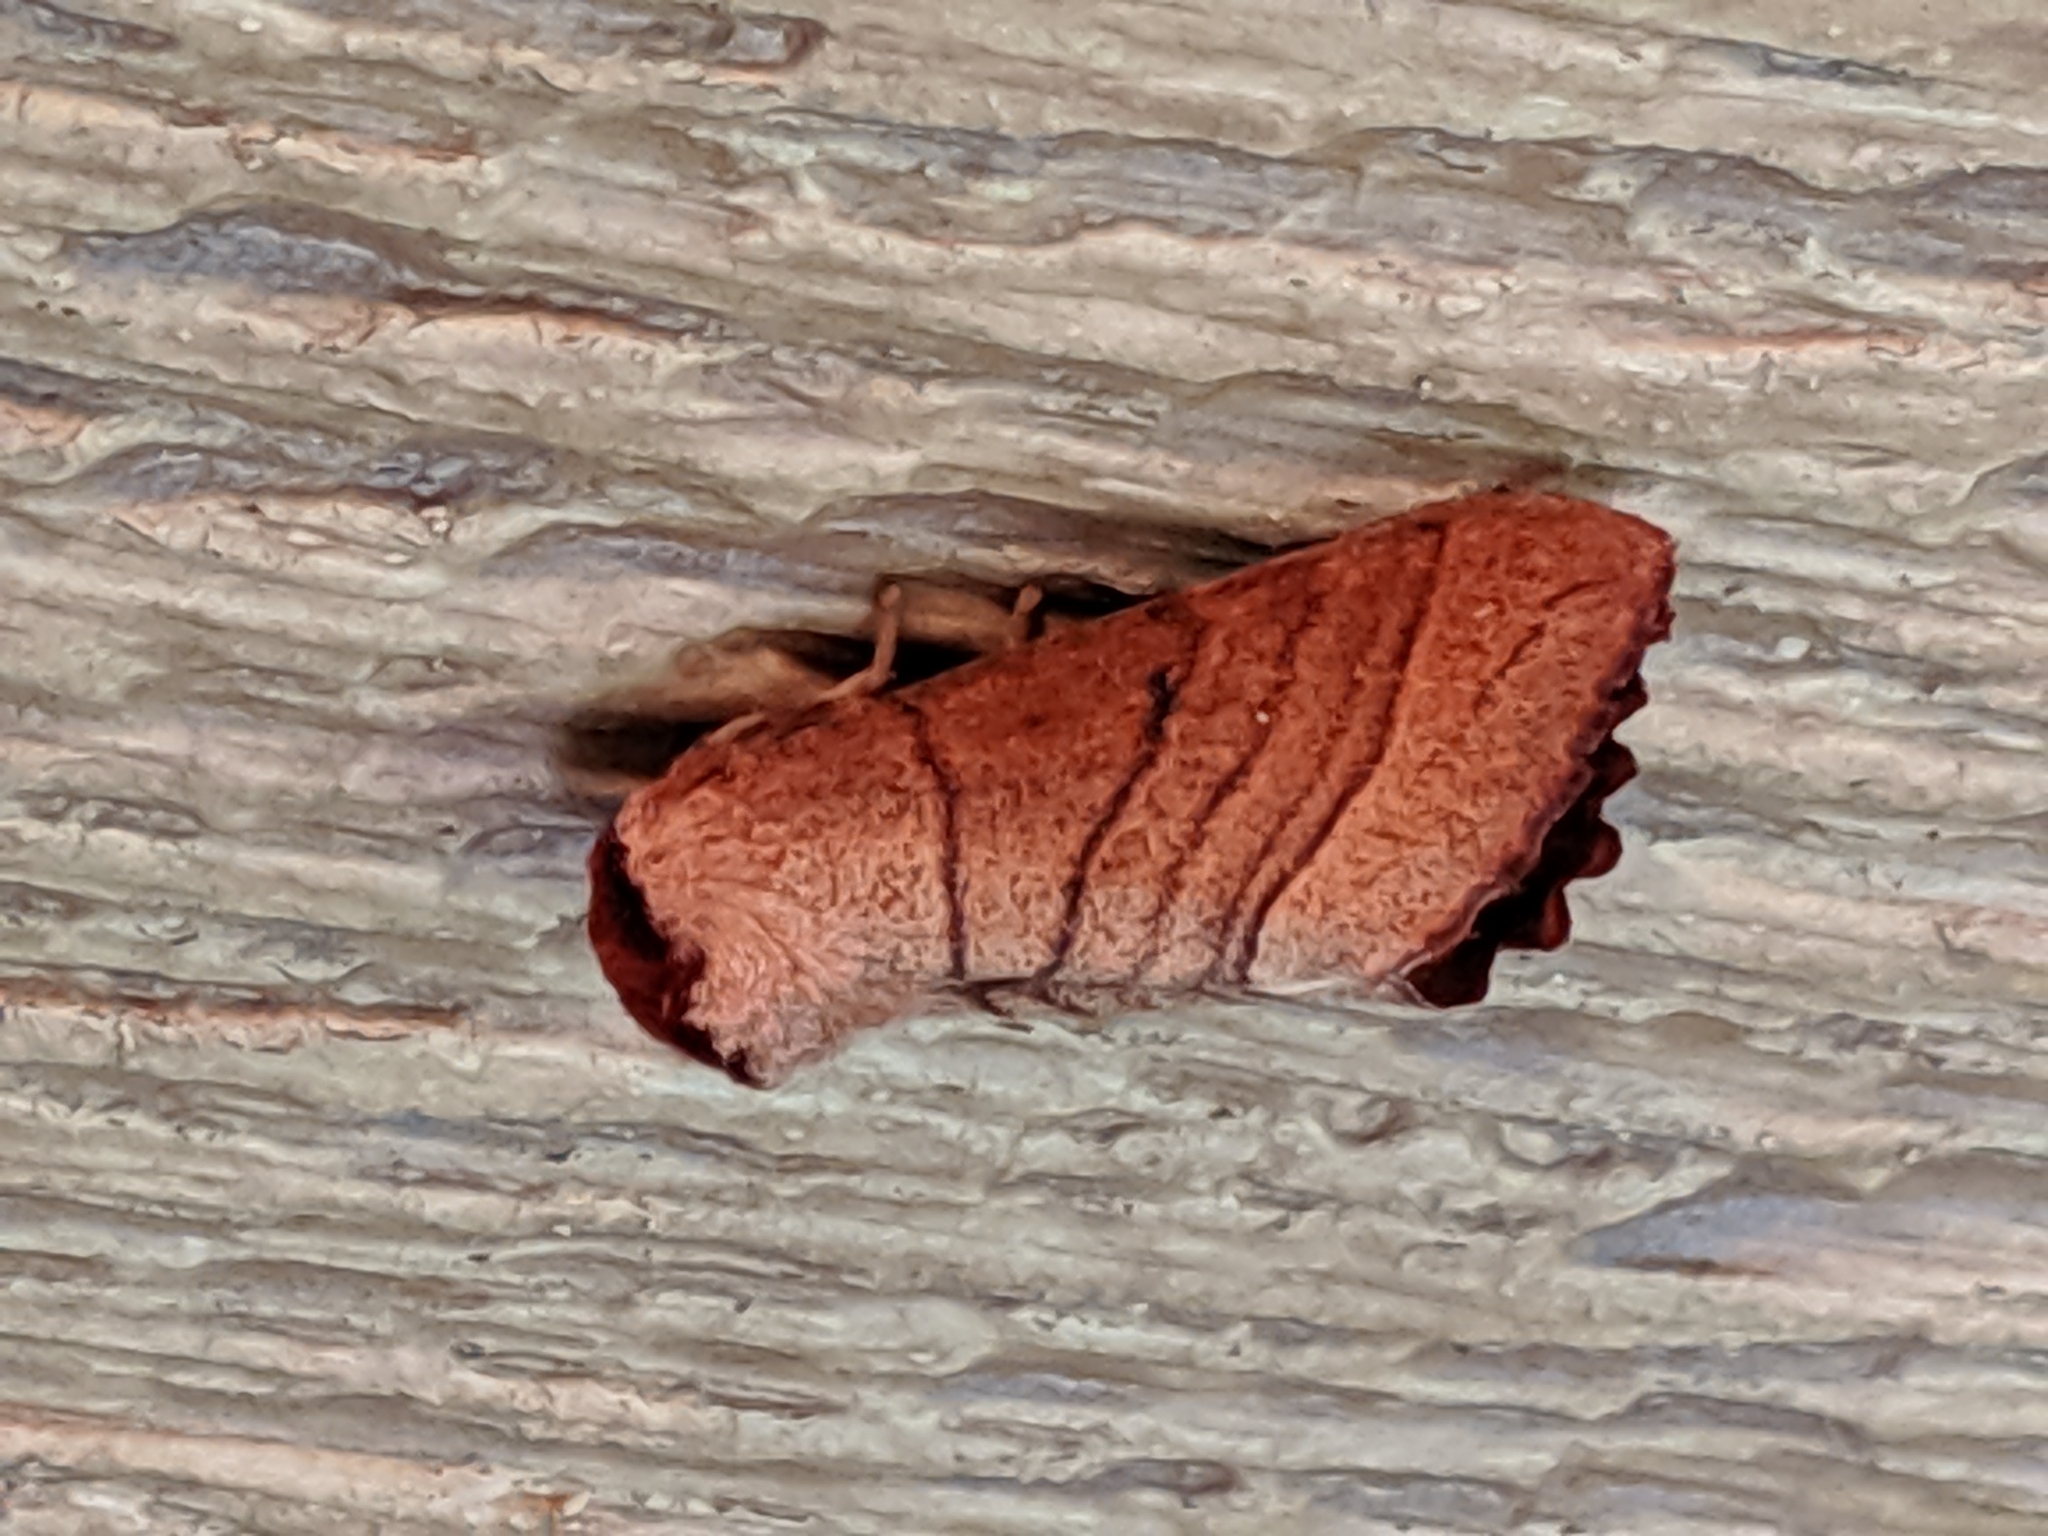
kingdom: Animalia
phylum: Arthropoda
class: Insecta
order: Lepidoptera
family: Notodontidae
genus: Datana
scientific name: Datana ministra
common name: Yellow-necked caterpillar moth
